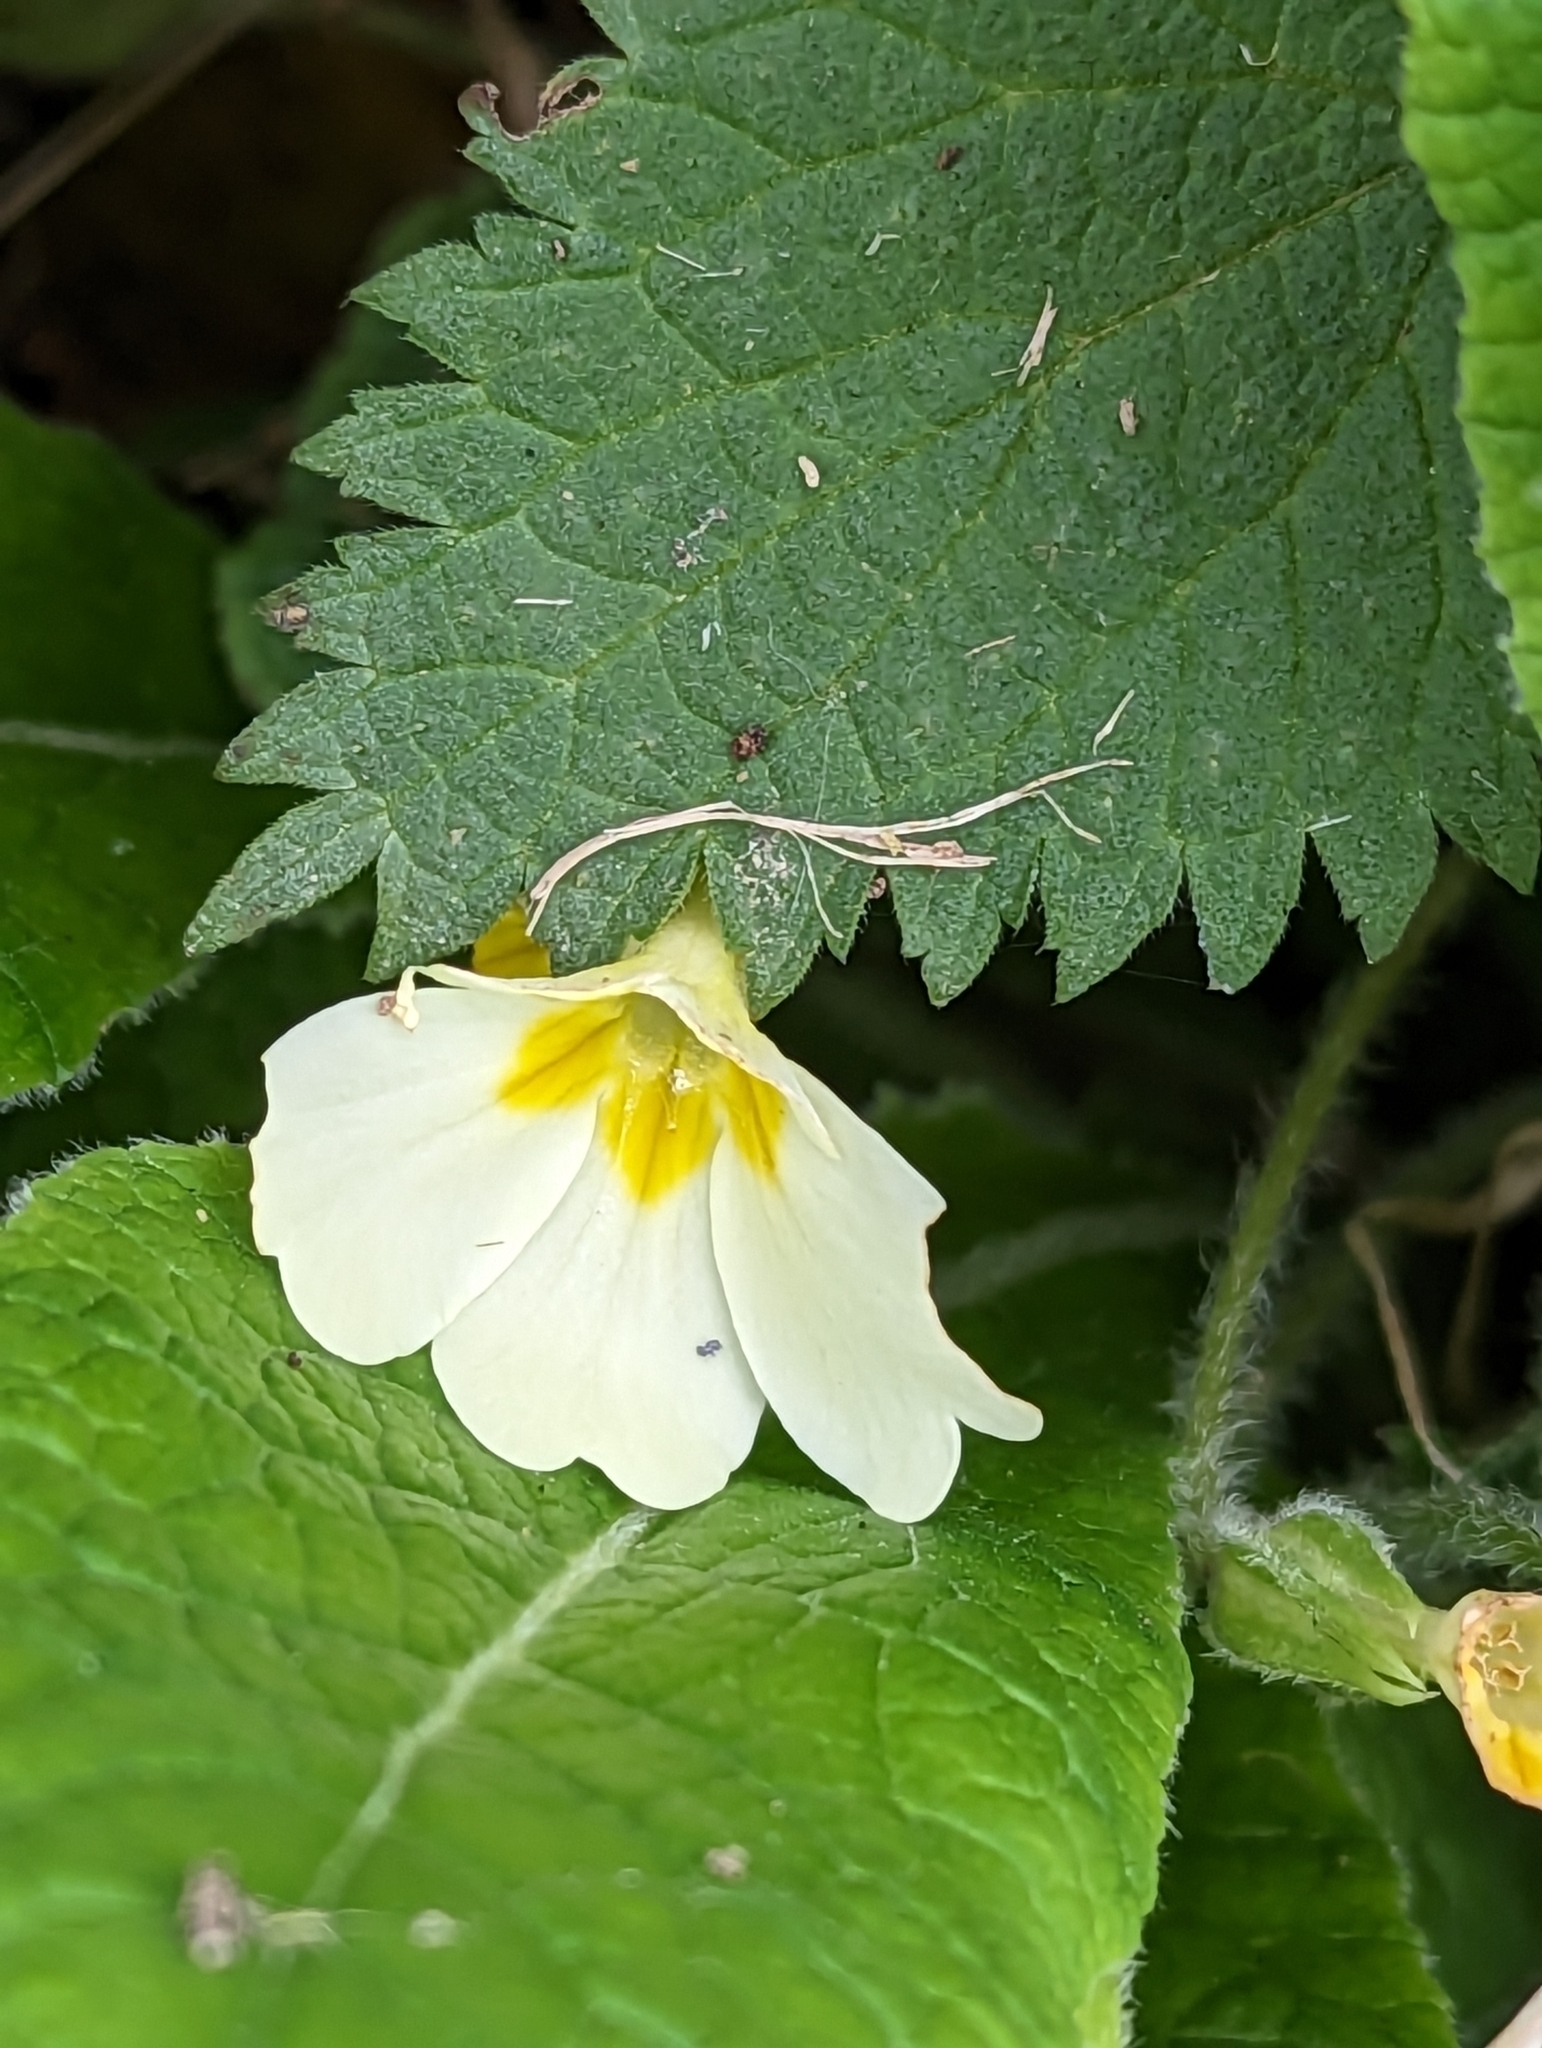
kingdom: Plantae
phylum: Tracheophyta
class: Magnoliopsida
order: Ericales
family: Primulaceae
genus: Primula
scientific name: Primula vulgaris
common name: Primrose
